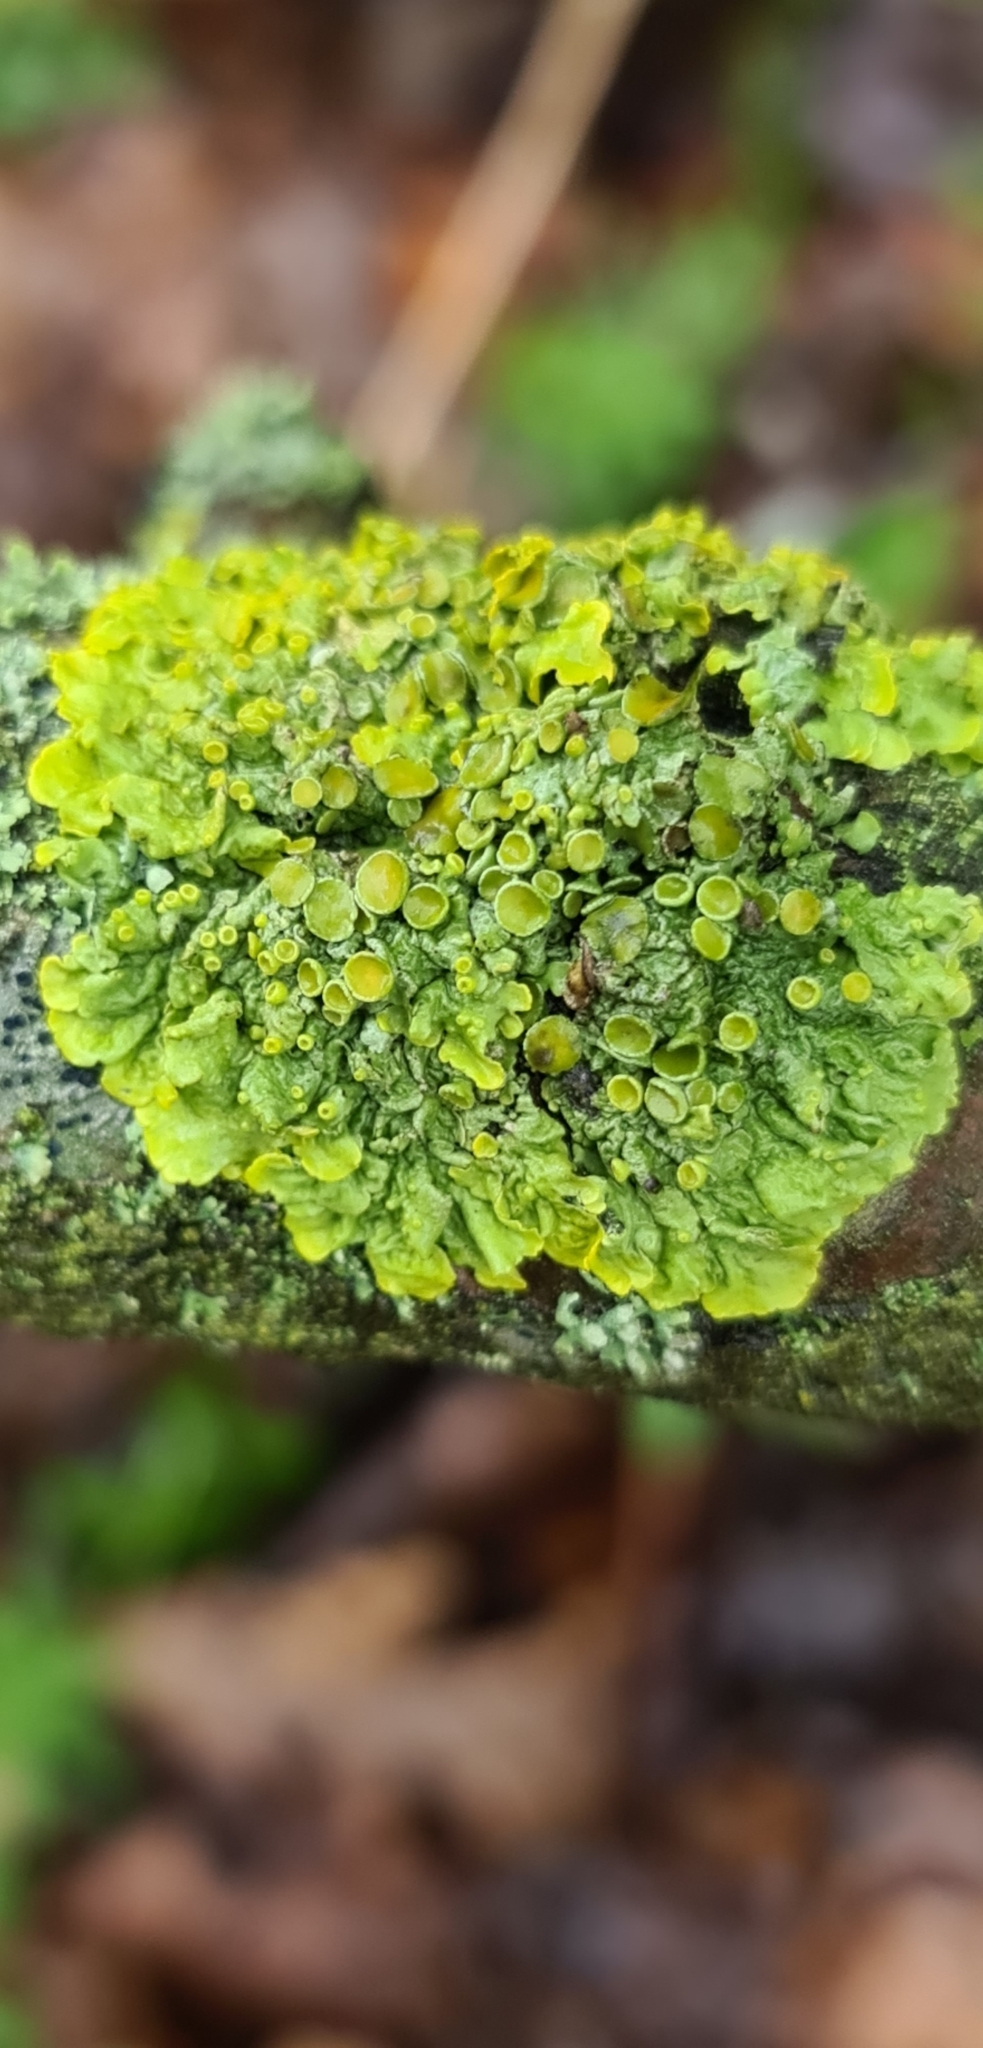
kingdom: Fungi
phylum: Ascomycota
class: Lecanoromycetes
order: Teloschistales
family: Teloschistaceae
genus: Xanthoria
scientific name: Xanthoria parietina
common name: Common orange lichen
